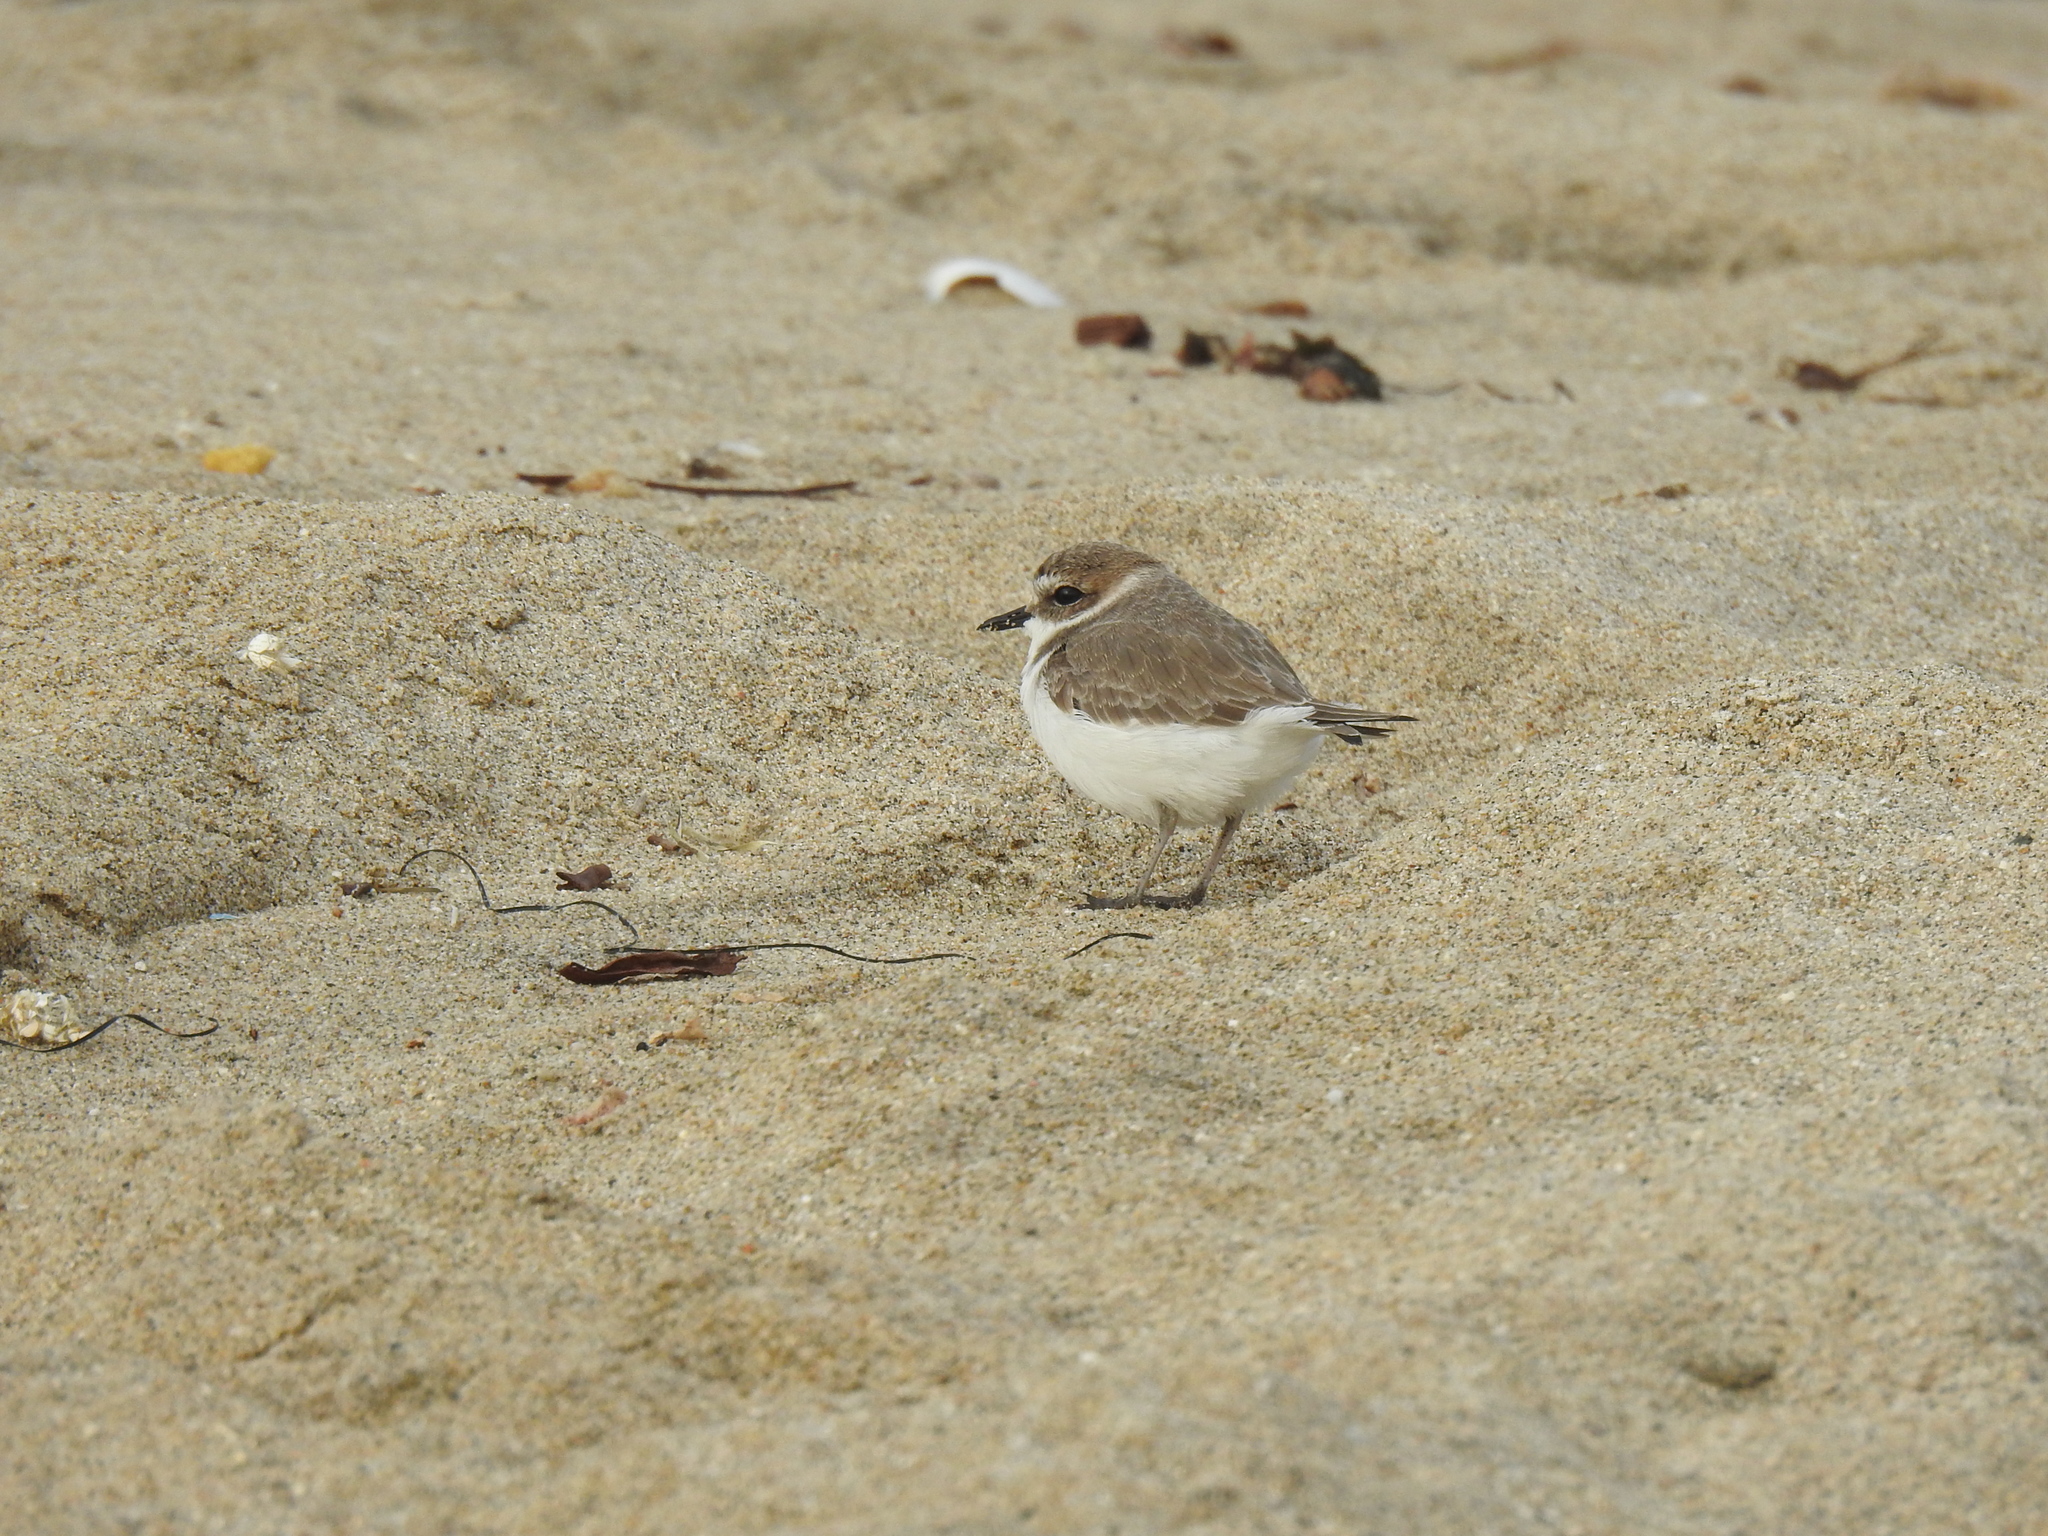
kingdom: Animalia
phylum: Chordata
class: Aves
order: Charadriiformes
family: Charadriidae
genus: Anarhynchus
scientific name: Anarhynchus
